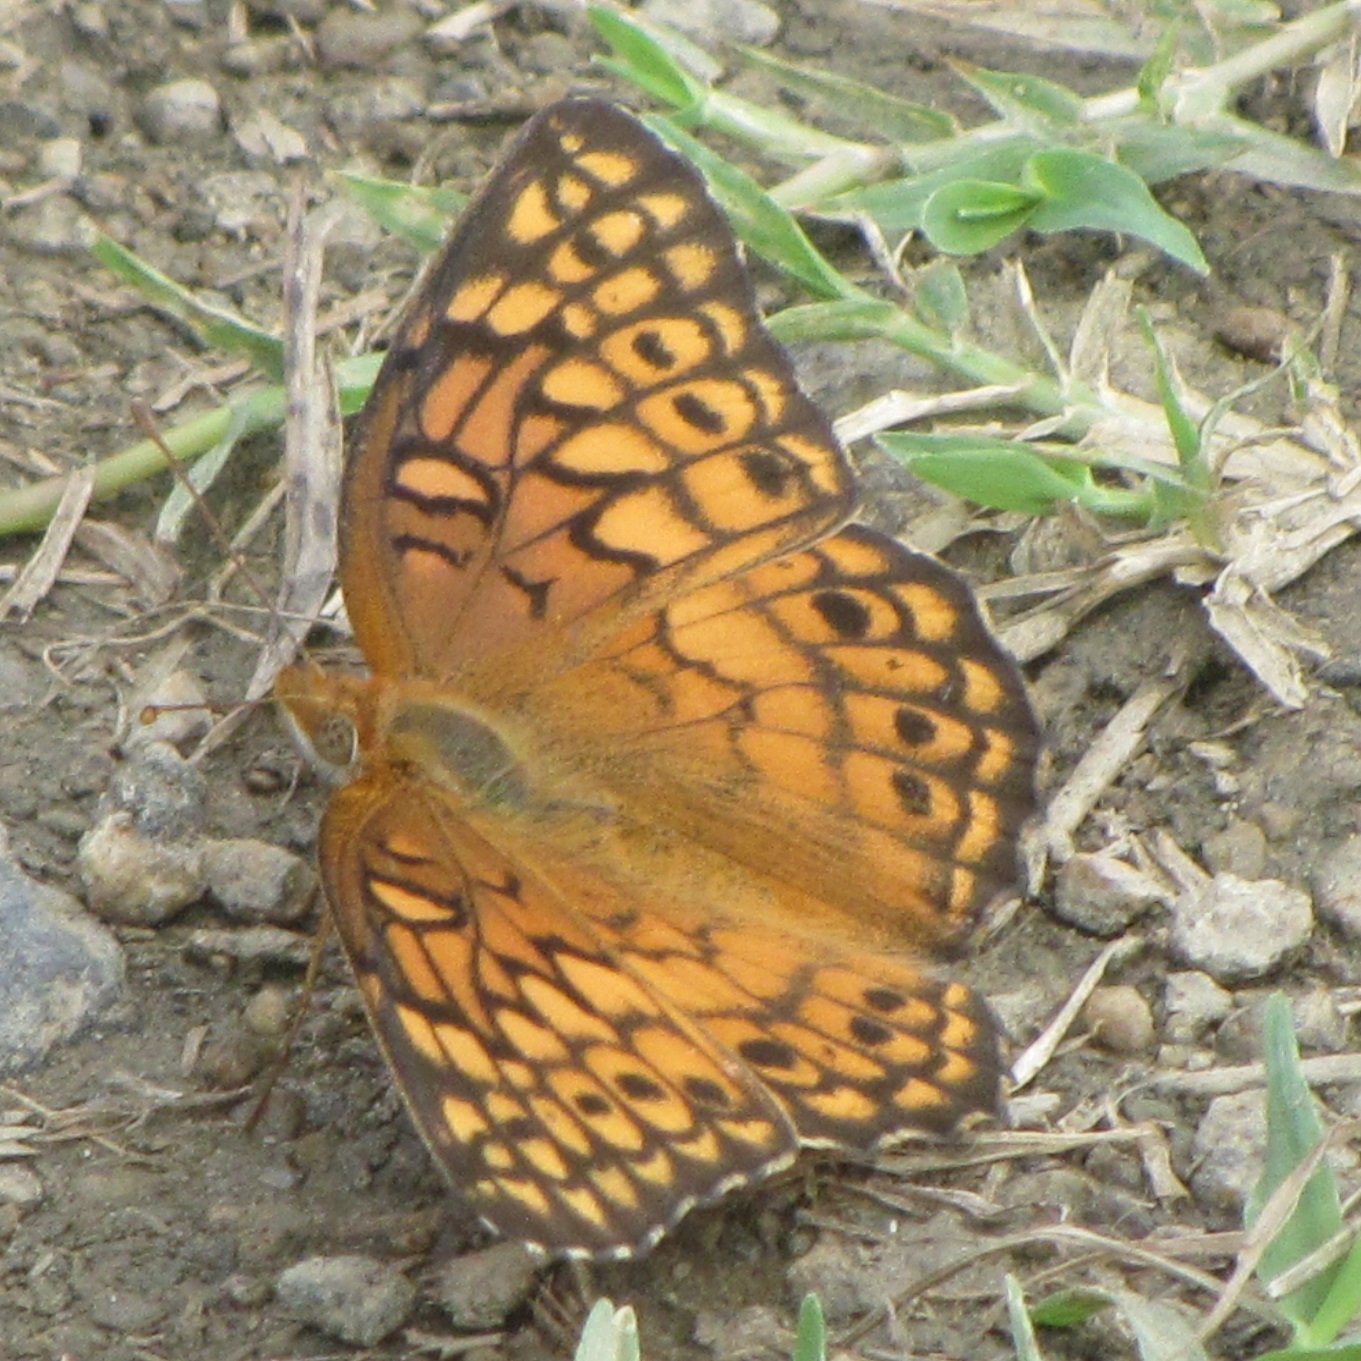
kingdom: Animalia
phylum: Arthropoda
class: Insecta
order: Lepidoptera
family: Nymphalidae
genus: Euptoieta
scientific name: Euptoieta claudia
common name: Variegated fritillary
